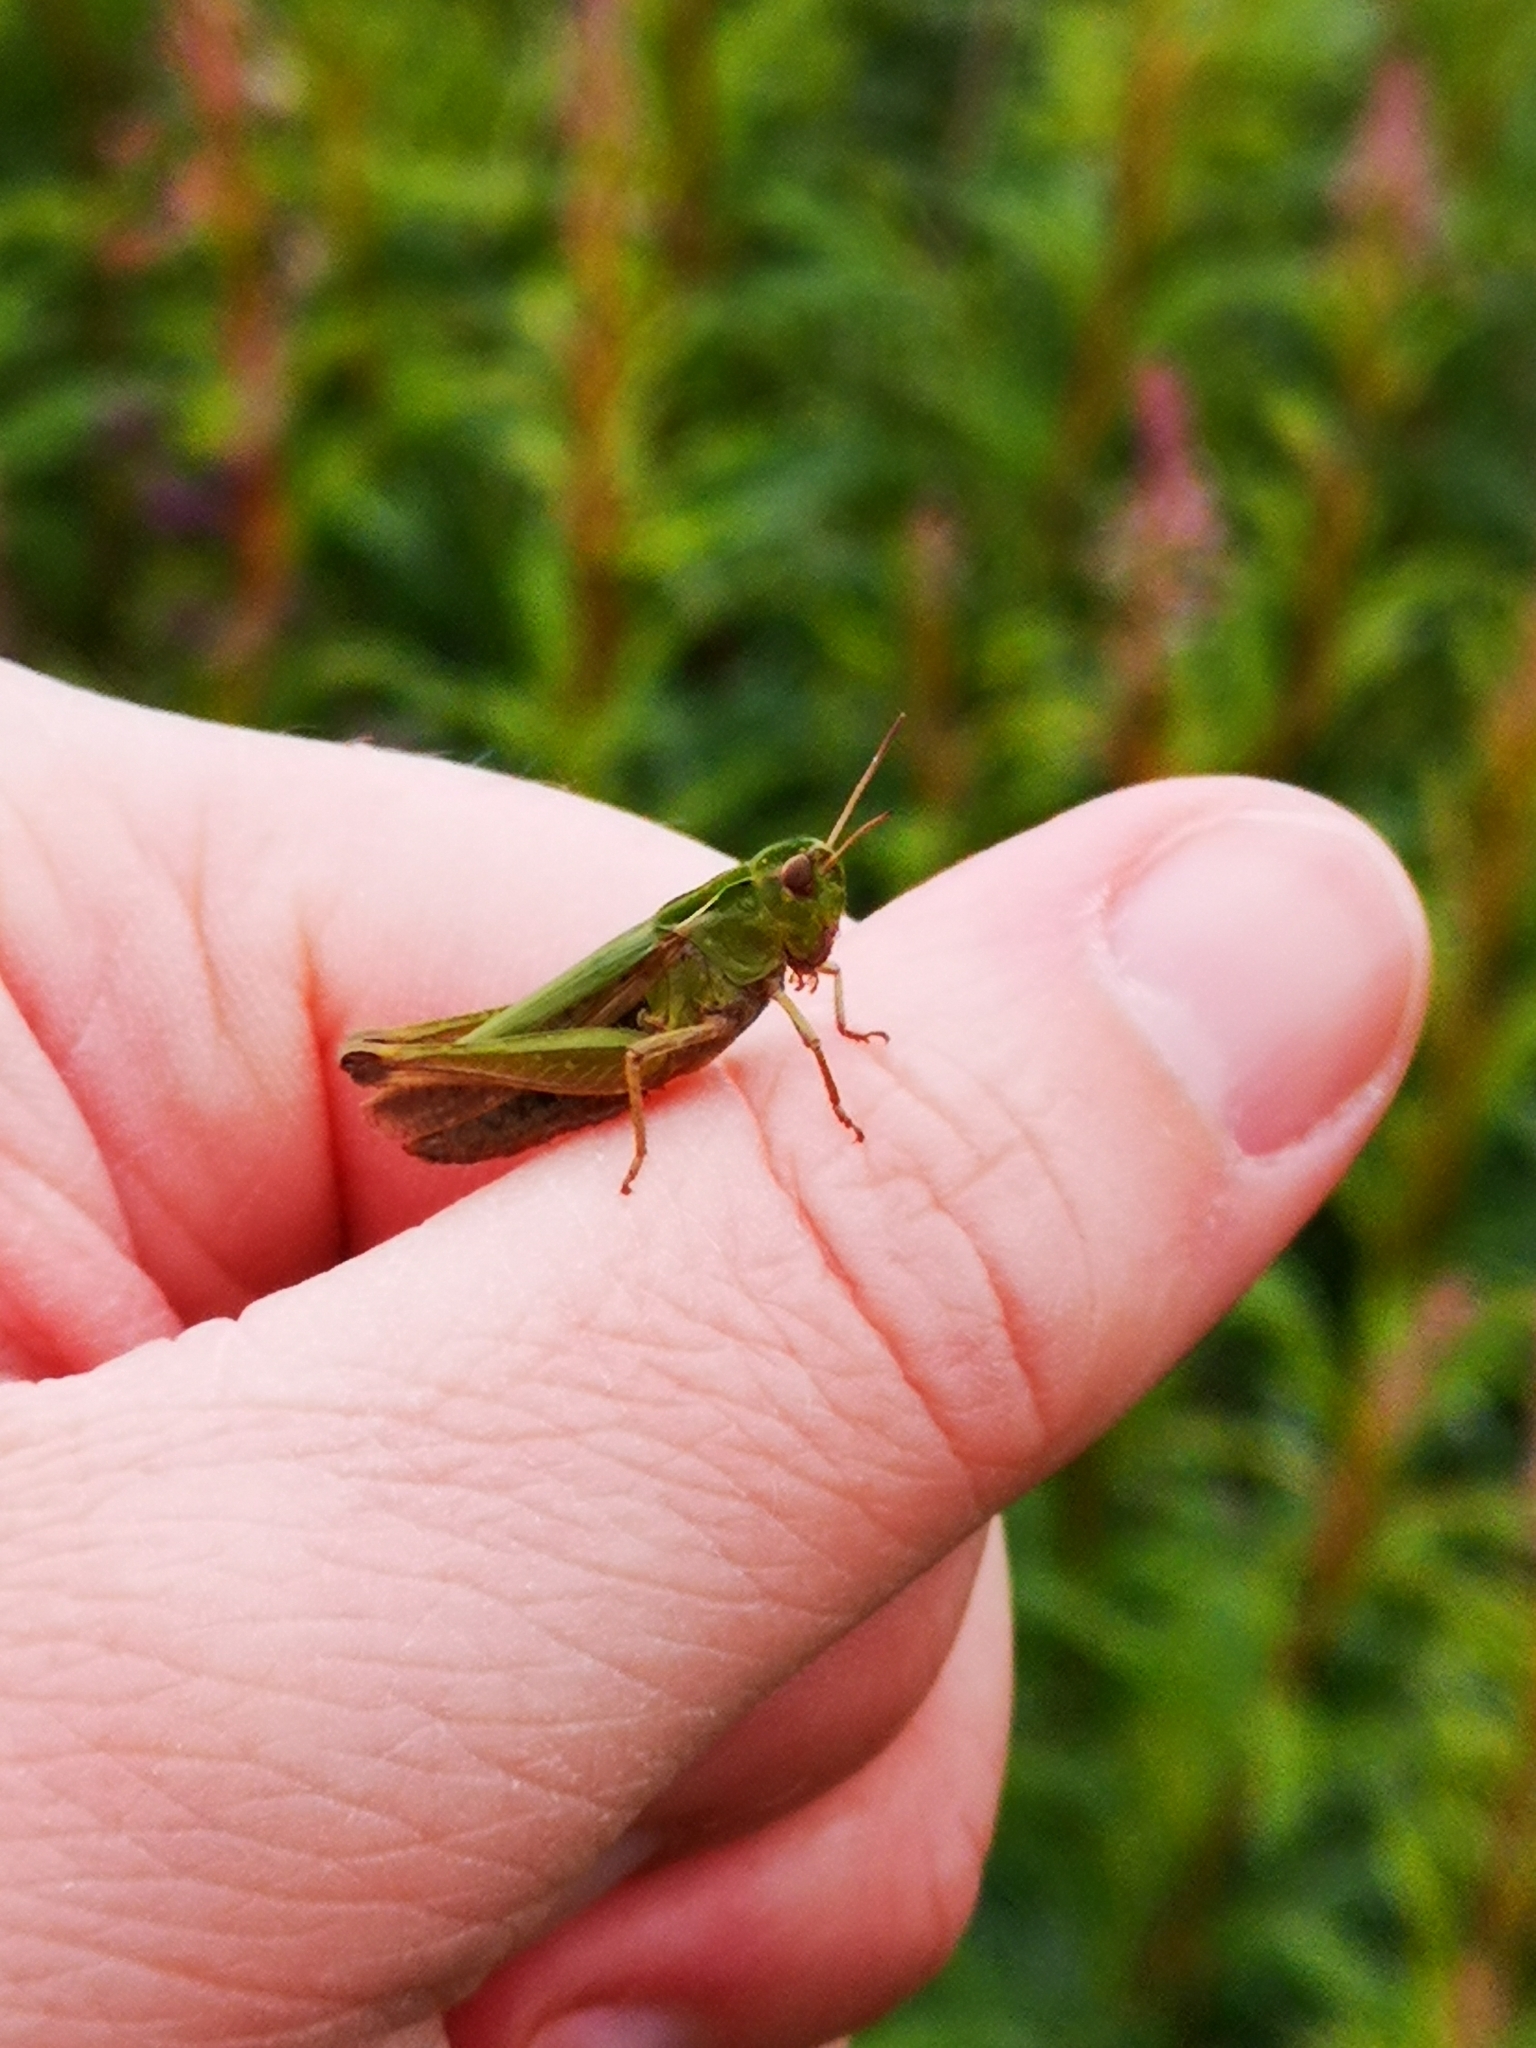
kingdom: Animalia
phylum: Arthropoda
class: Insecta
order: Orthoptera
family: Acrididae
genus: Omocestus
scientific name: Omocestus viridulus
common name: Common green grasshopper
